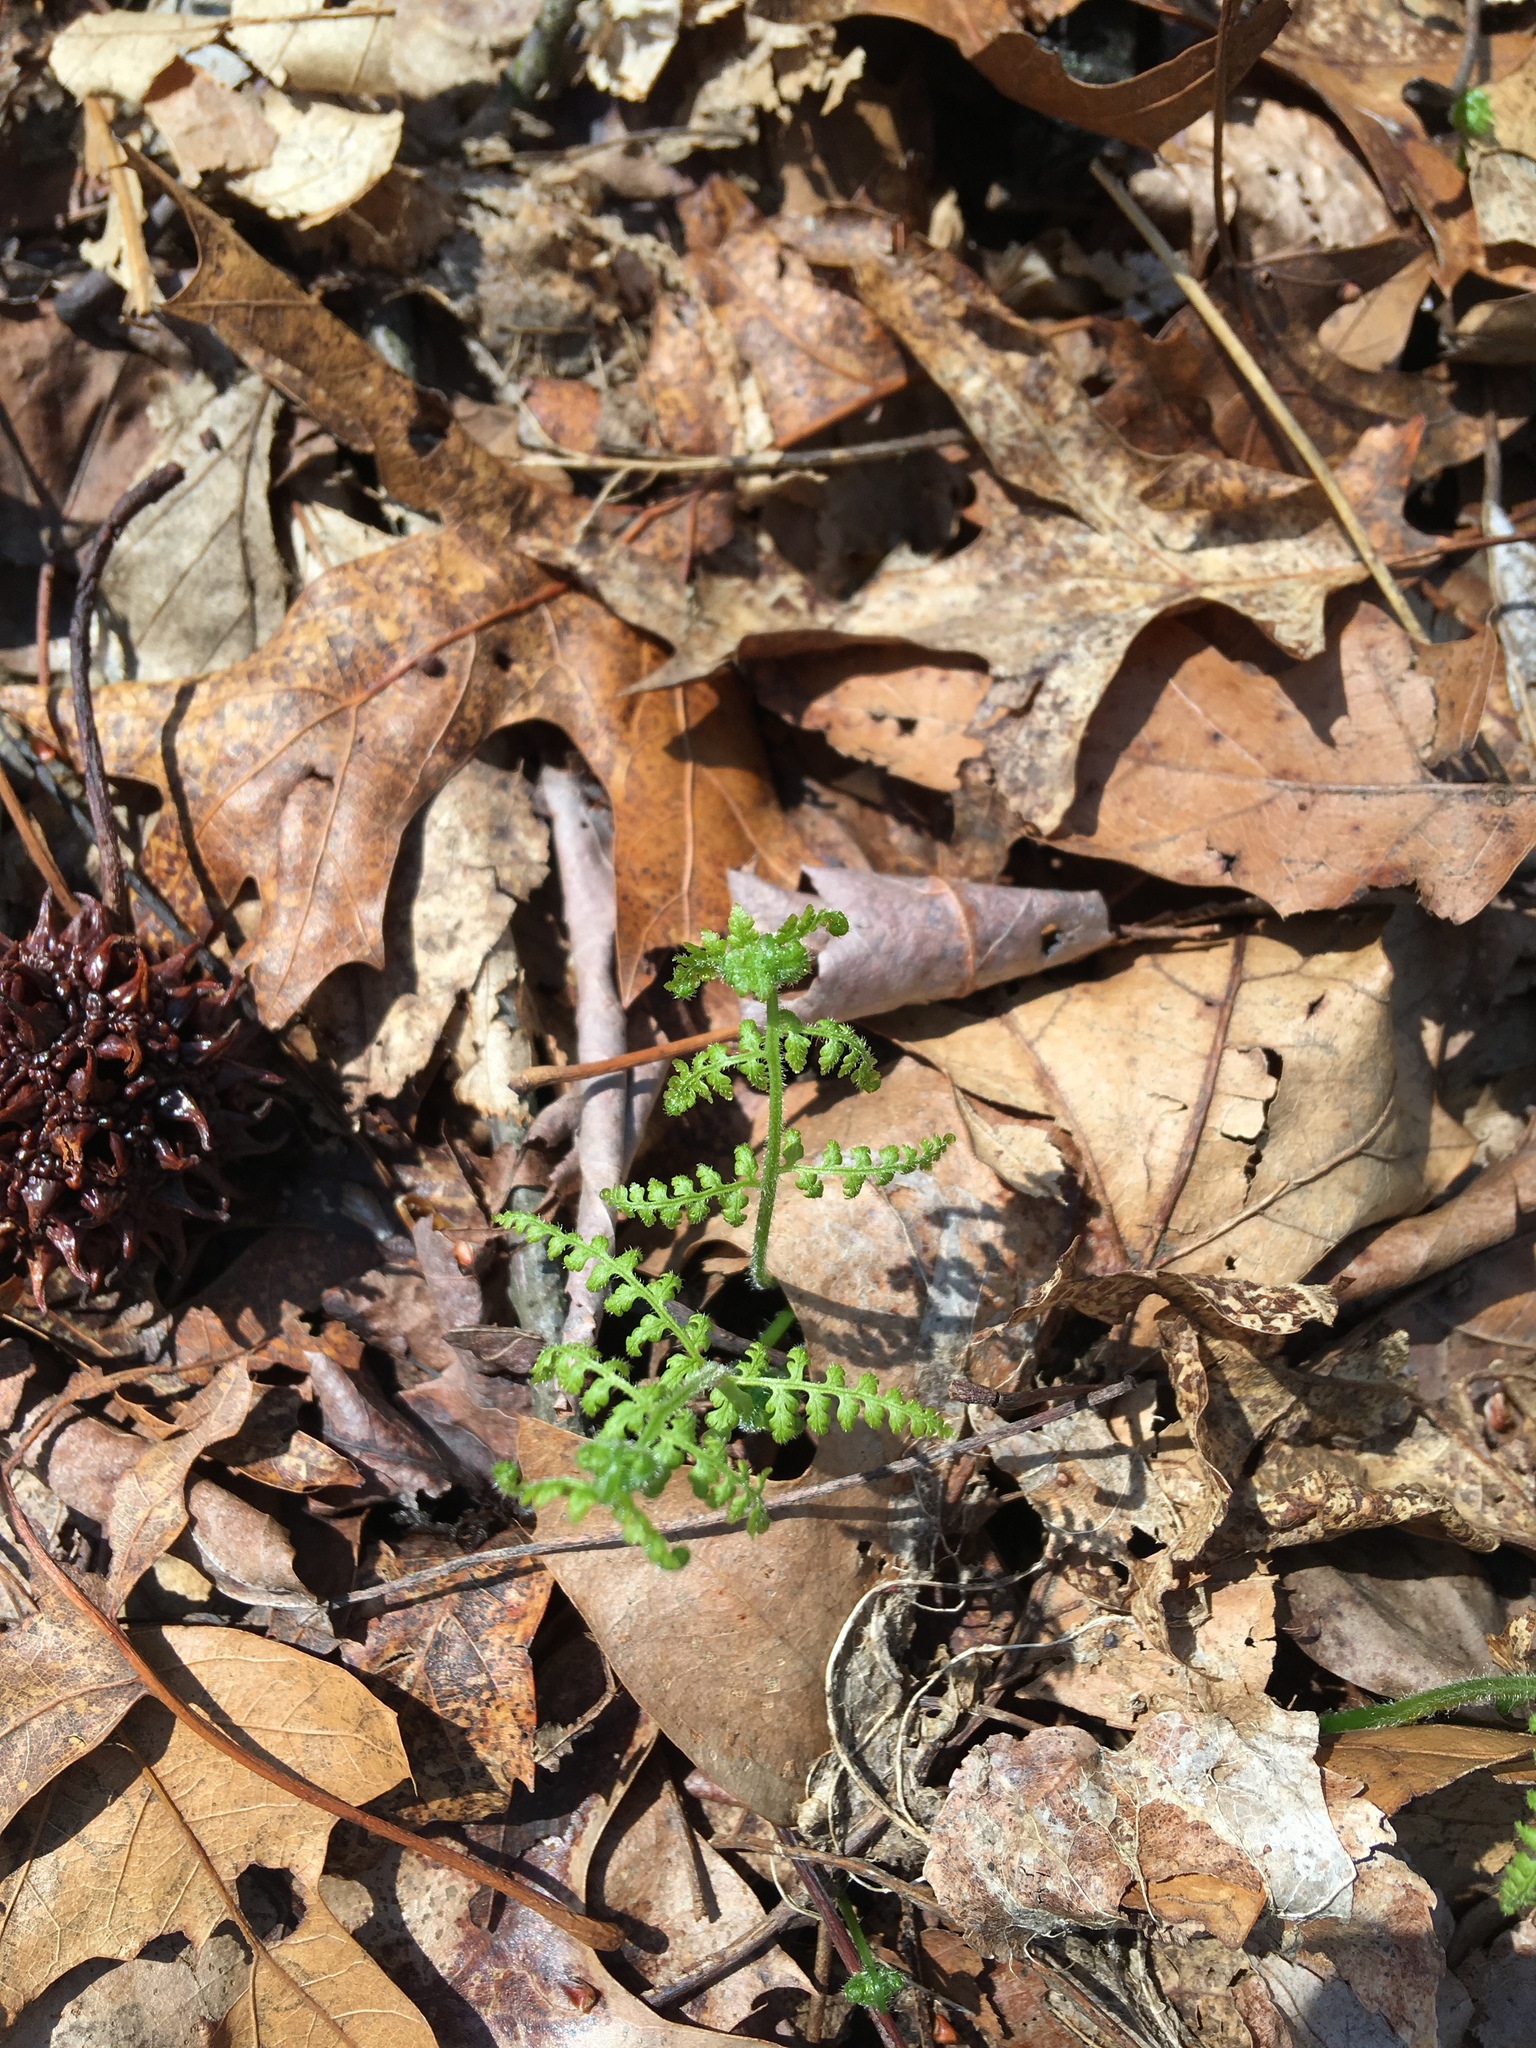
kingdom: Plantae
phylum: Tracheophyta
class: Polypodiopsida
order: Polypodiales
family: Dennstaedtiaceae
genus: Sitobolium
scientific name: Sitobolium punctilobum
